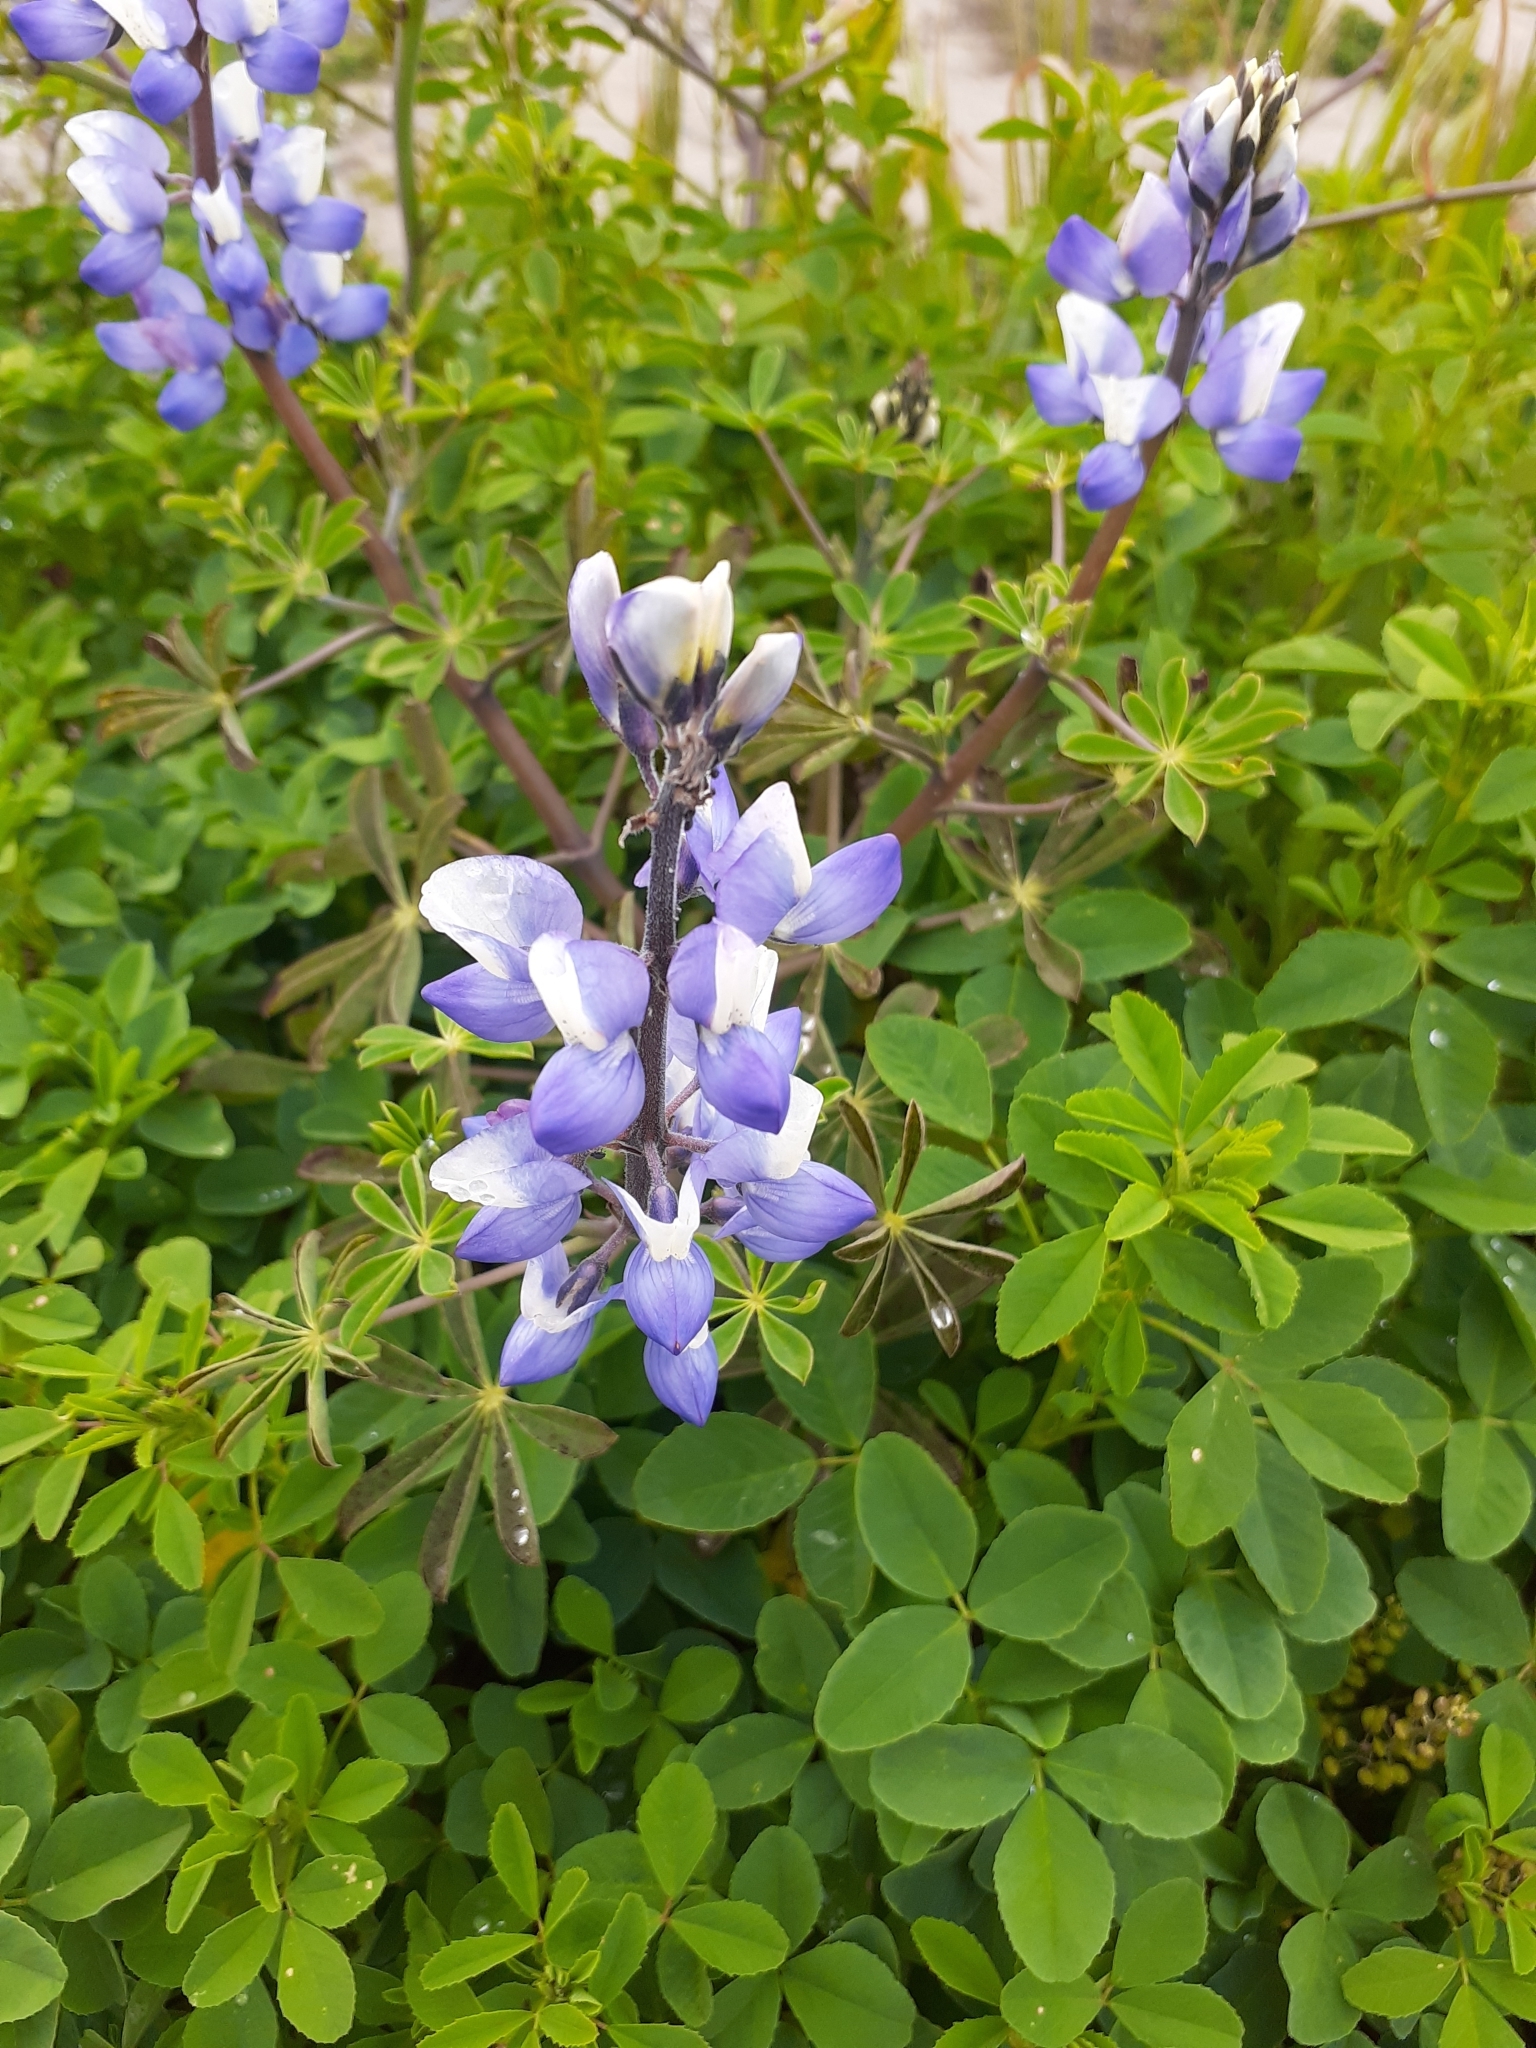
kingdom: Plantae
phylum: Tracheophyta
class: Magnoliopsida
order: Fabales
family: Fabaceae
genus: Lupinus
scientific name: Lupinus succulentus
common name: Arroyo lupine
